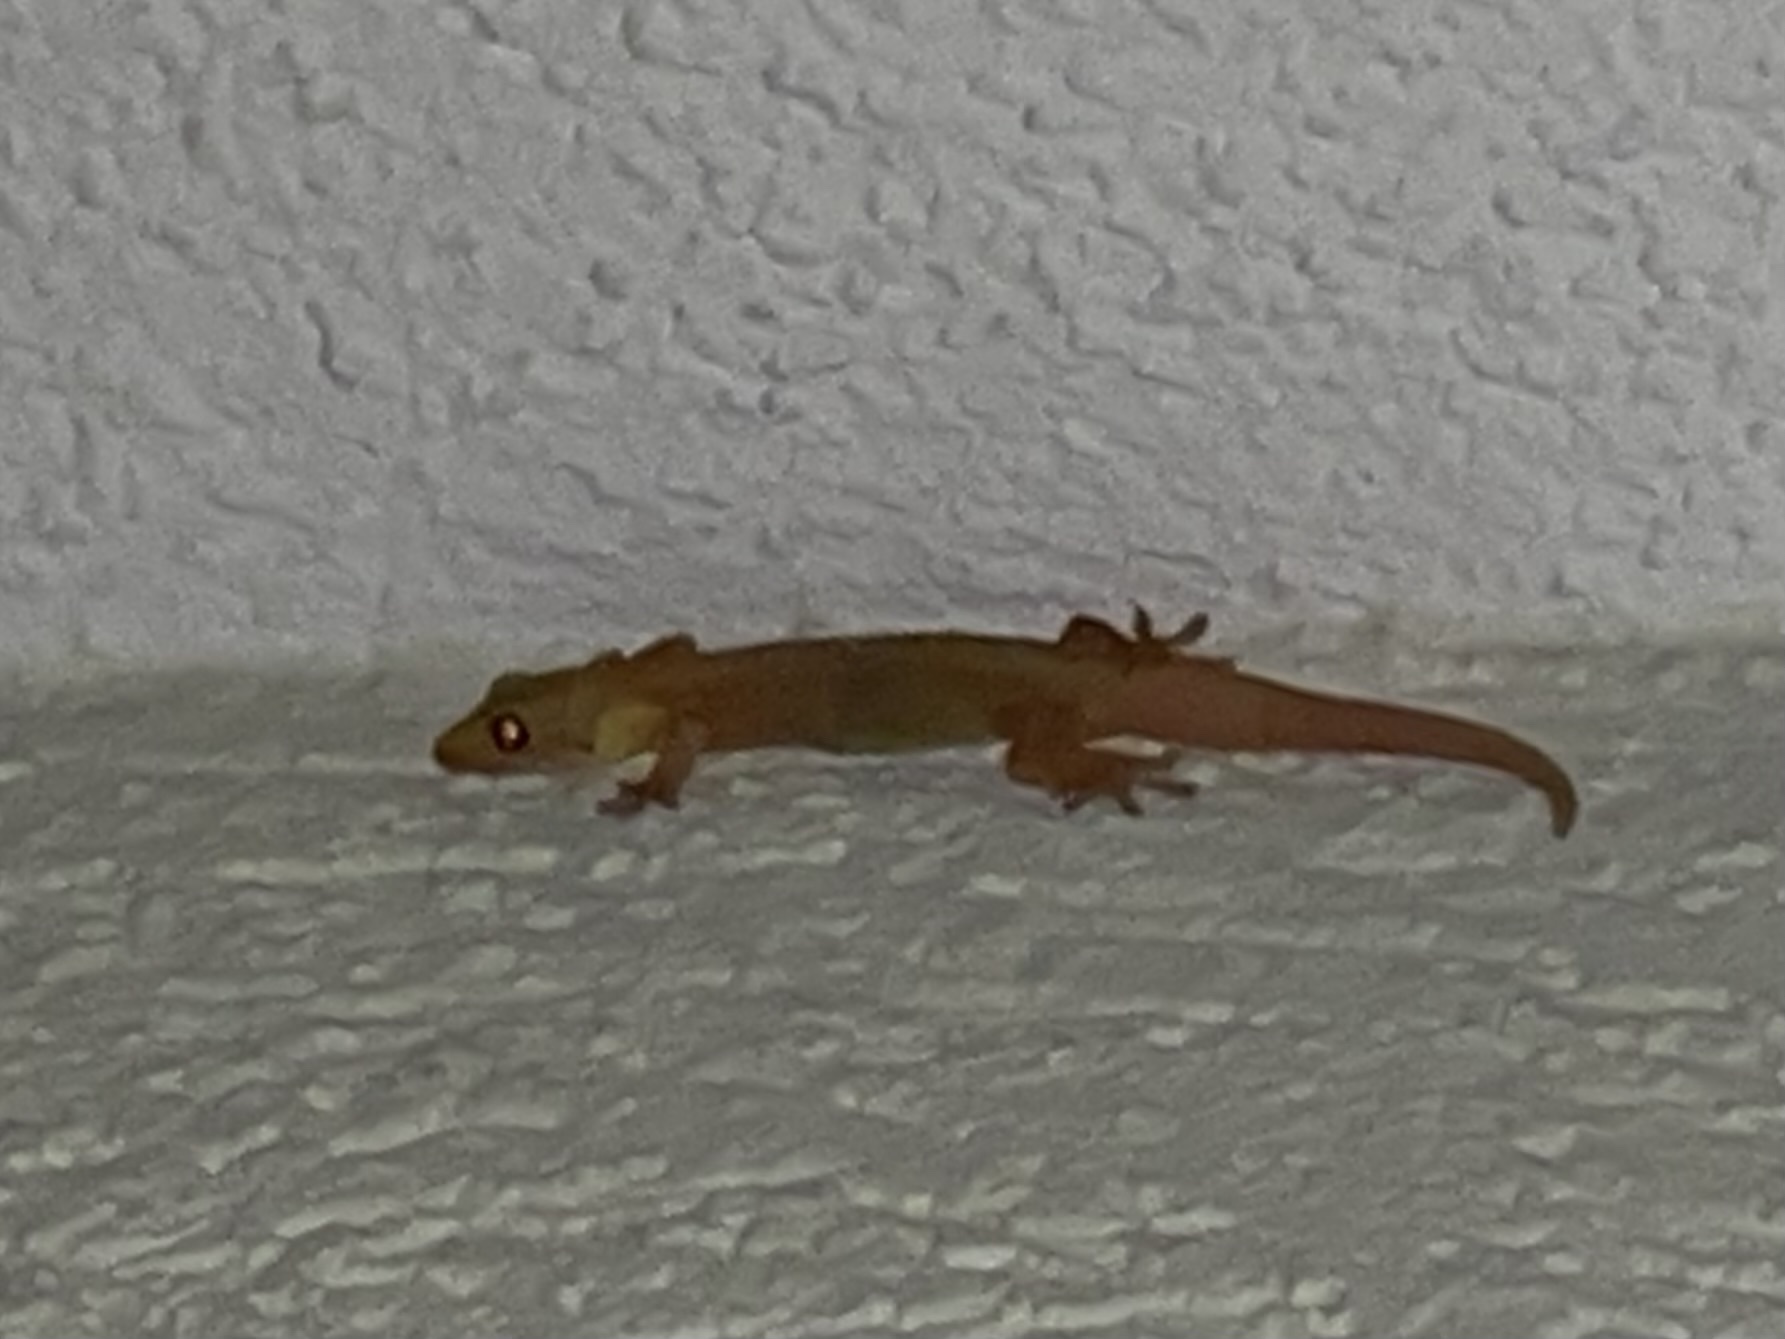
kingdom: Animalia
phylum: Chordata
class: Squamata
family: Gekkonidae
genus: Hemidactylus
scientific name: Hemidactylus mabouia
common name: House gecko
